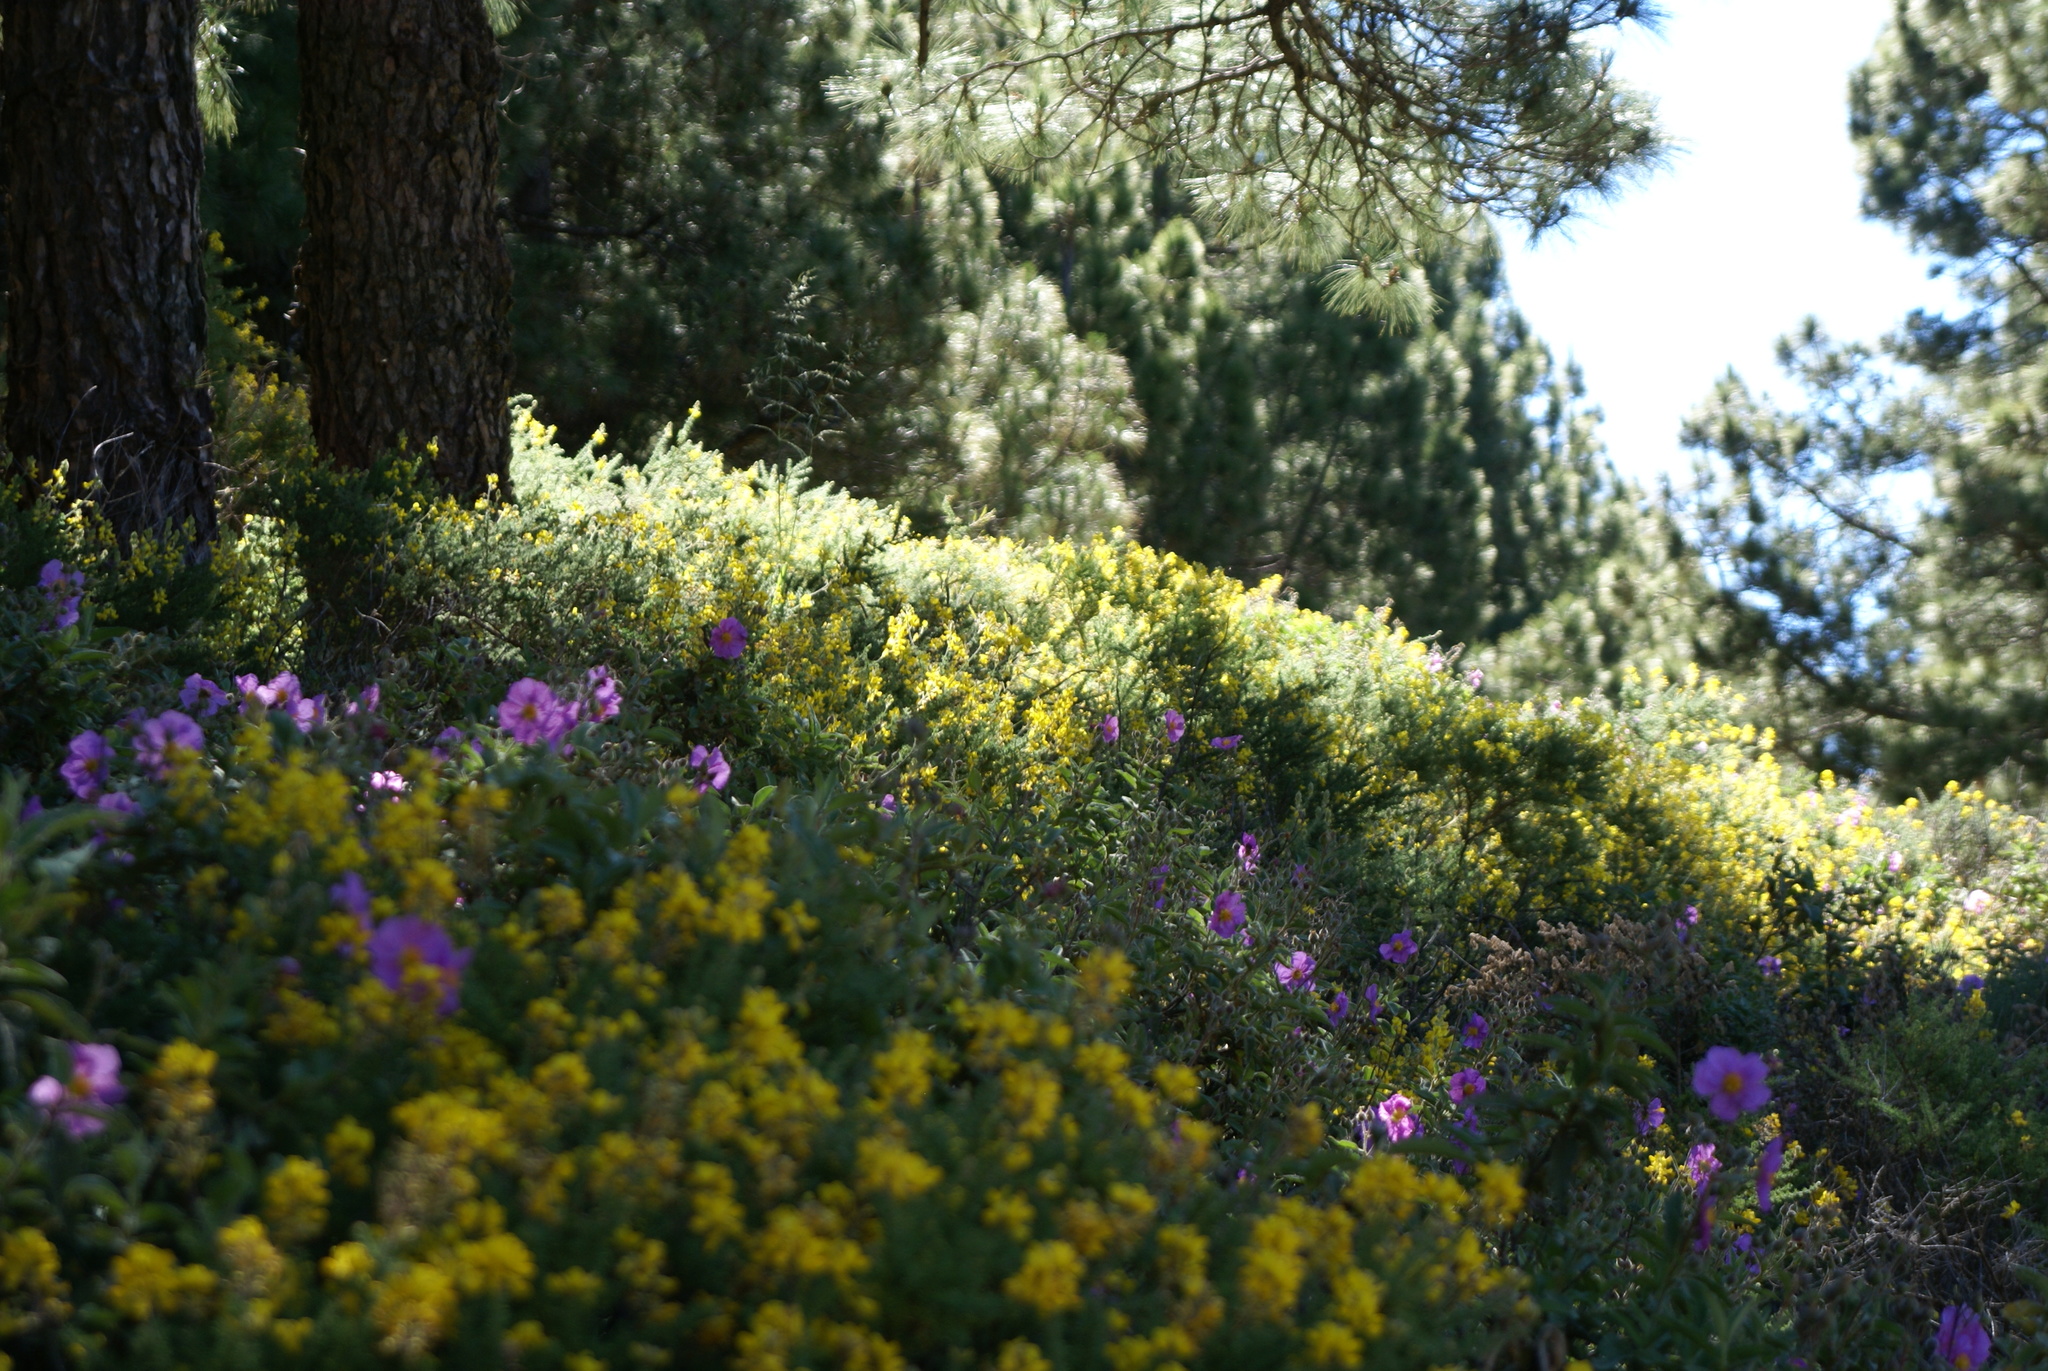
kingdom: Plantae
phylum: Tracheophyta
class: Magnoliopsida
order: Malvales
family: Cistaceae
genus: Cistus
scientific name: Cistus symphytifolius
